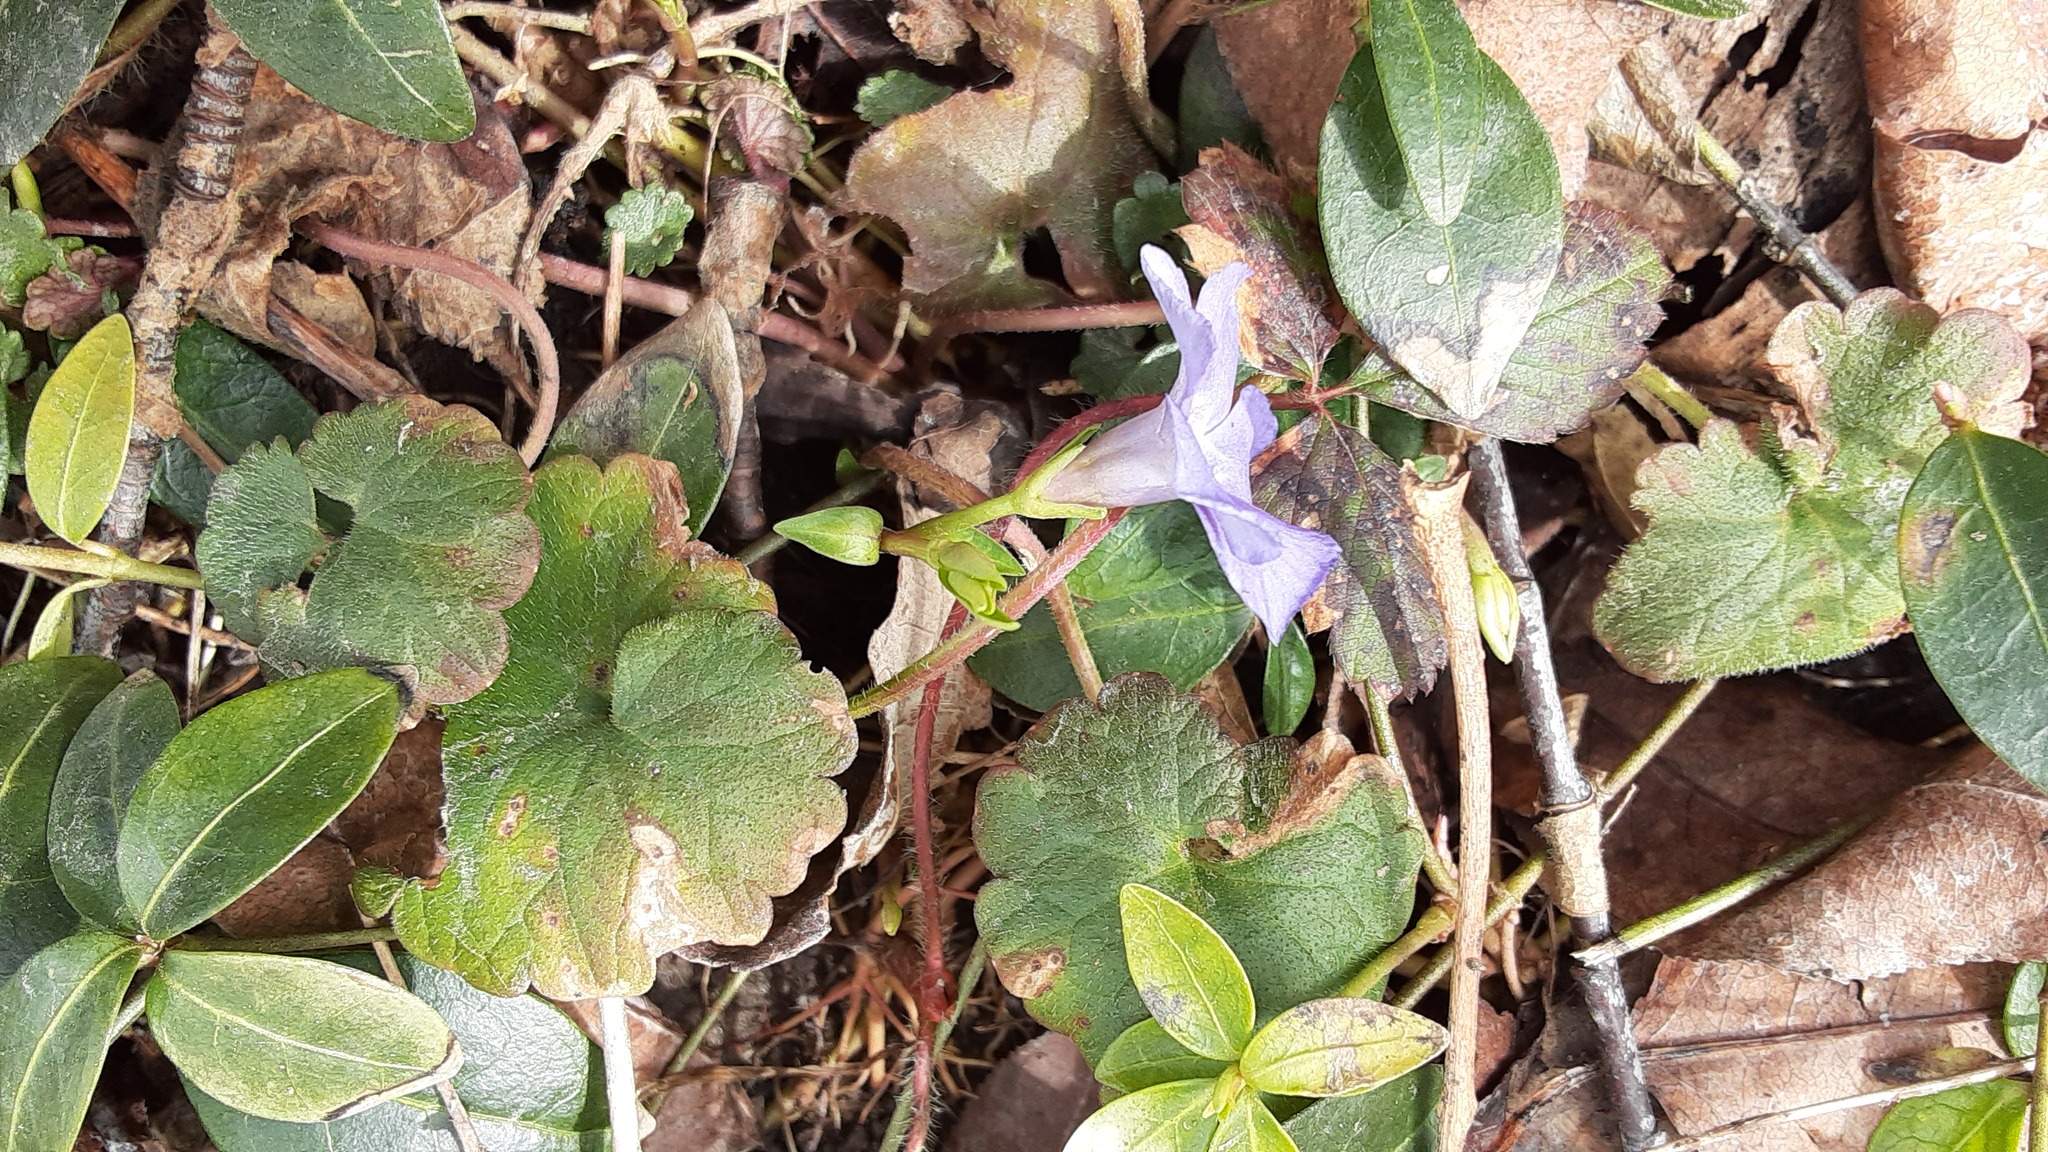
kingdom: Plantae
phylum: Tracheophyta
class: Magnoliopsida
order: Gentianales
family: Apocynaceae
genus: Vinca
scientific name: Vinca minor
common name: Lesser periwinkle
